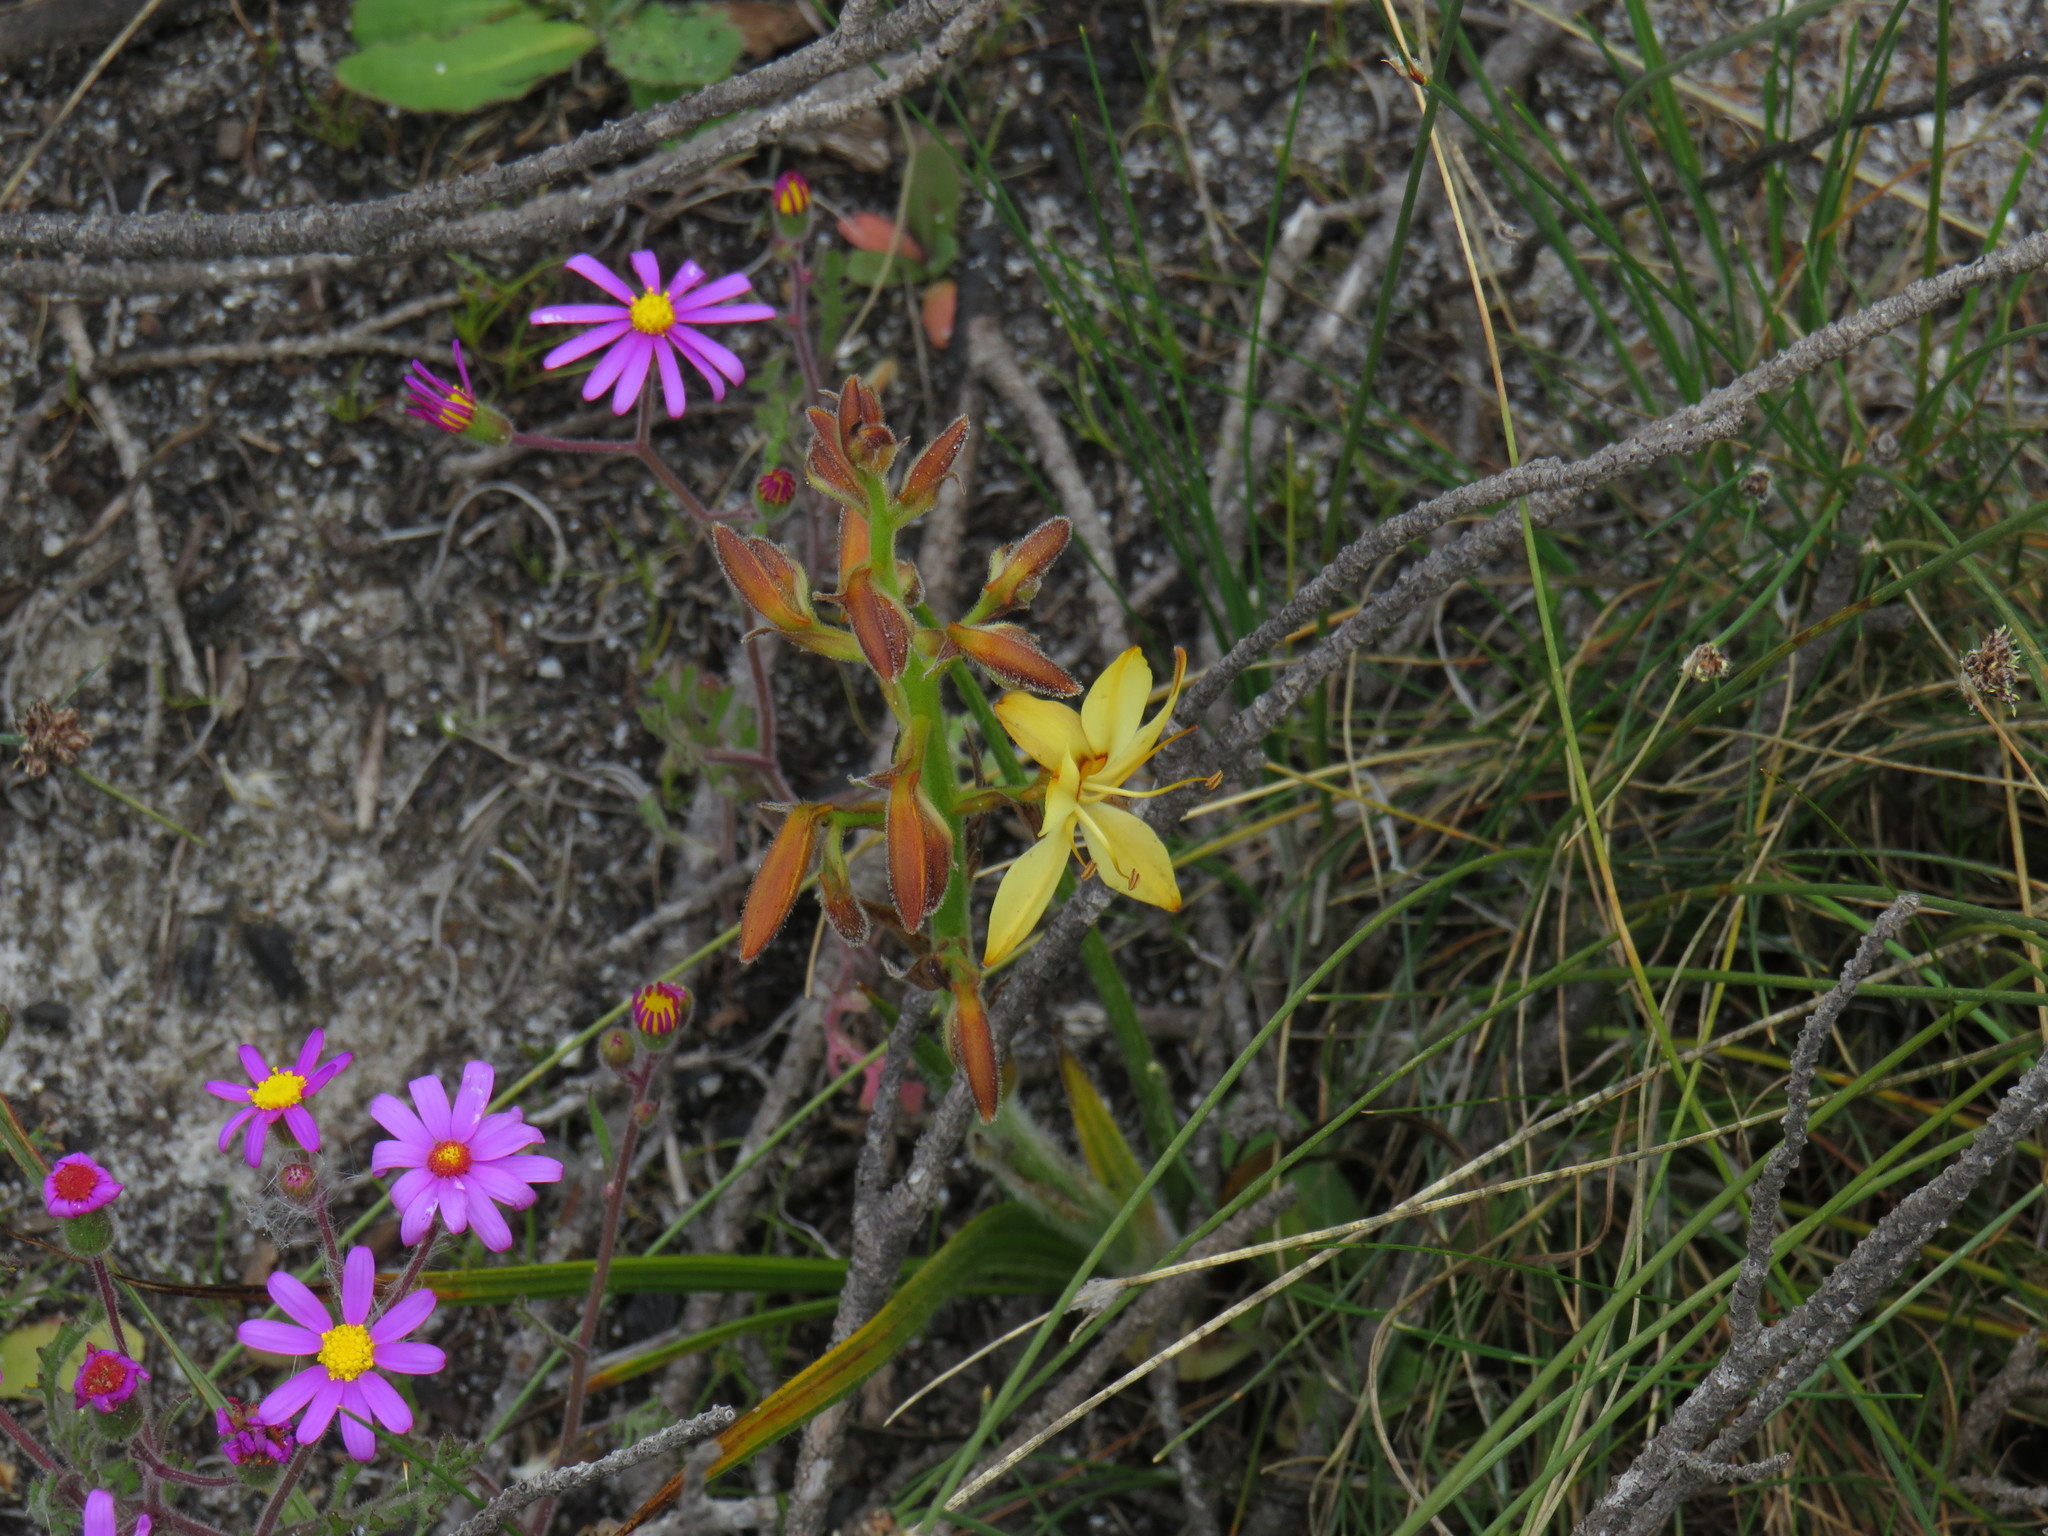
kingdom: Plantae
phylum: Tracheophyta
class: Liliopsida
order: Commelinales
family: Haemodoraceae
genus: Wachendorfia
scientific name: Wachendorfia paniculata
